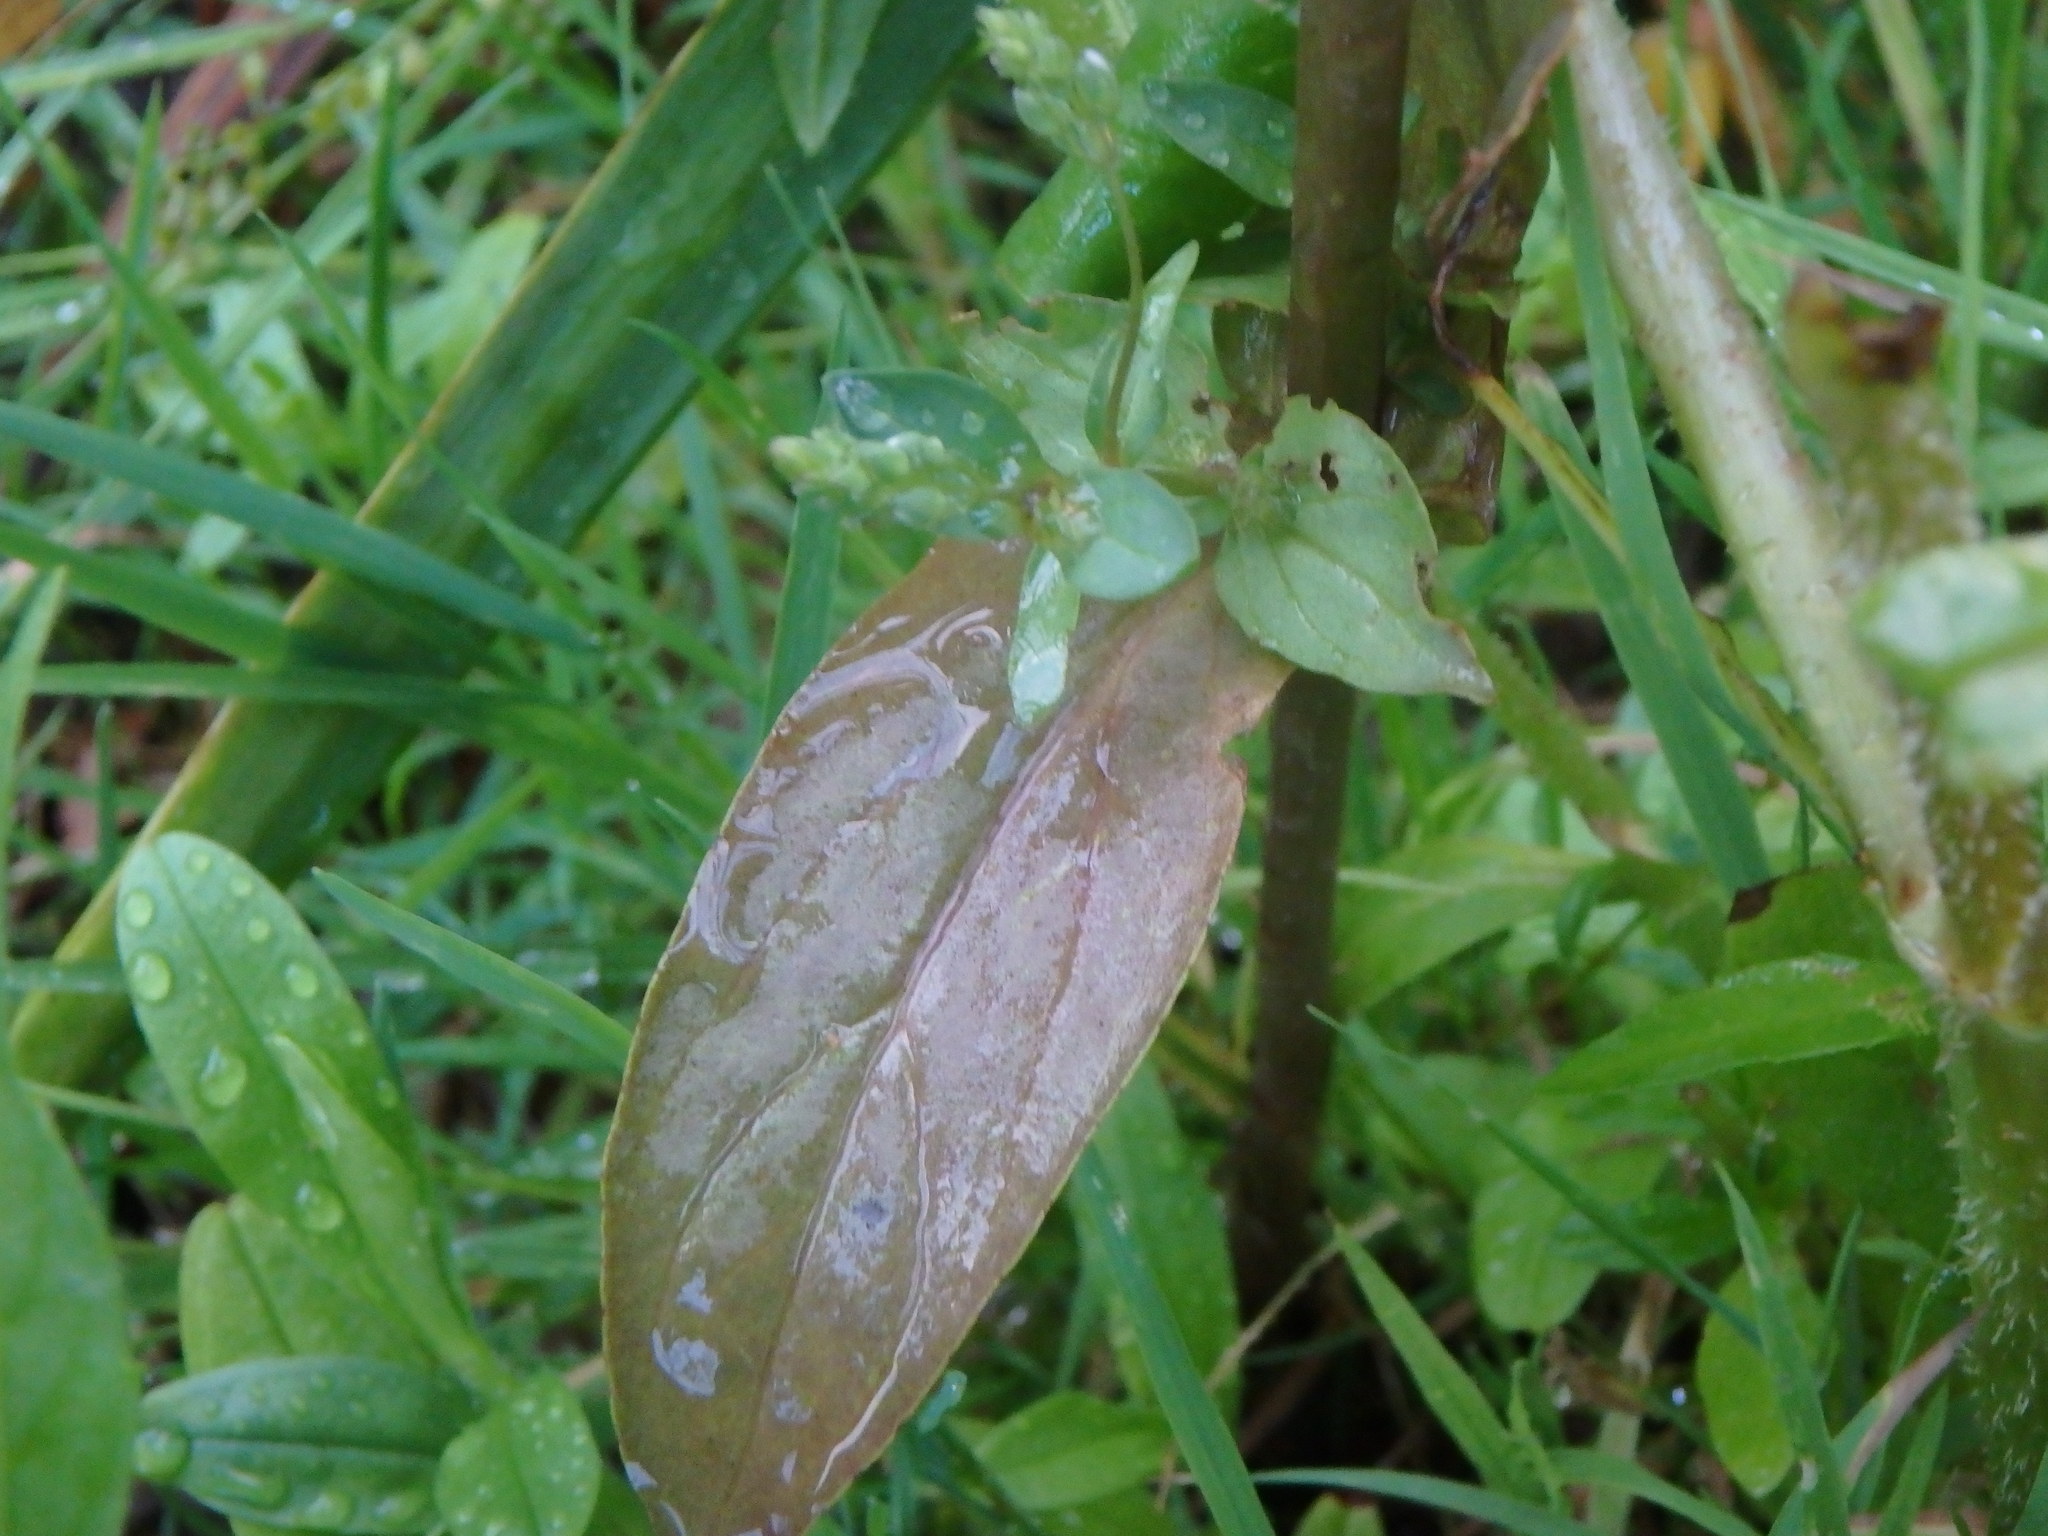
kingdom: Plantae
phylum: Tracheophyta
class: Magnoliopsida
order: Lamiales
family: Plantaginaceae
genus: Veronica
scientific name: Veronica catenata
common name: Pink water-speedwell
